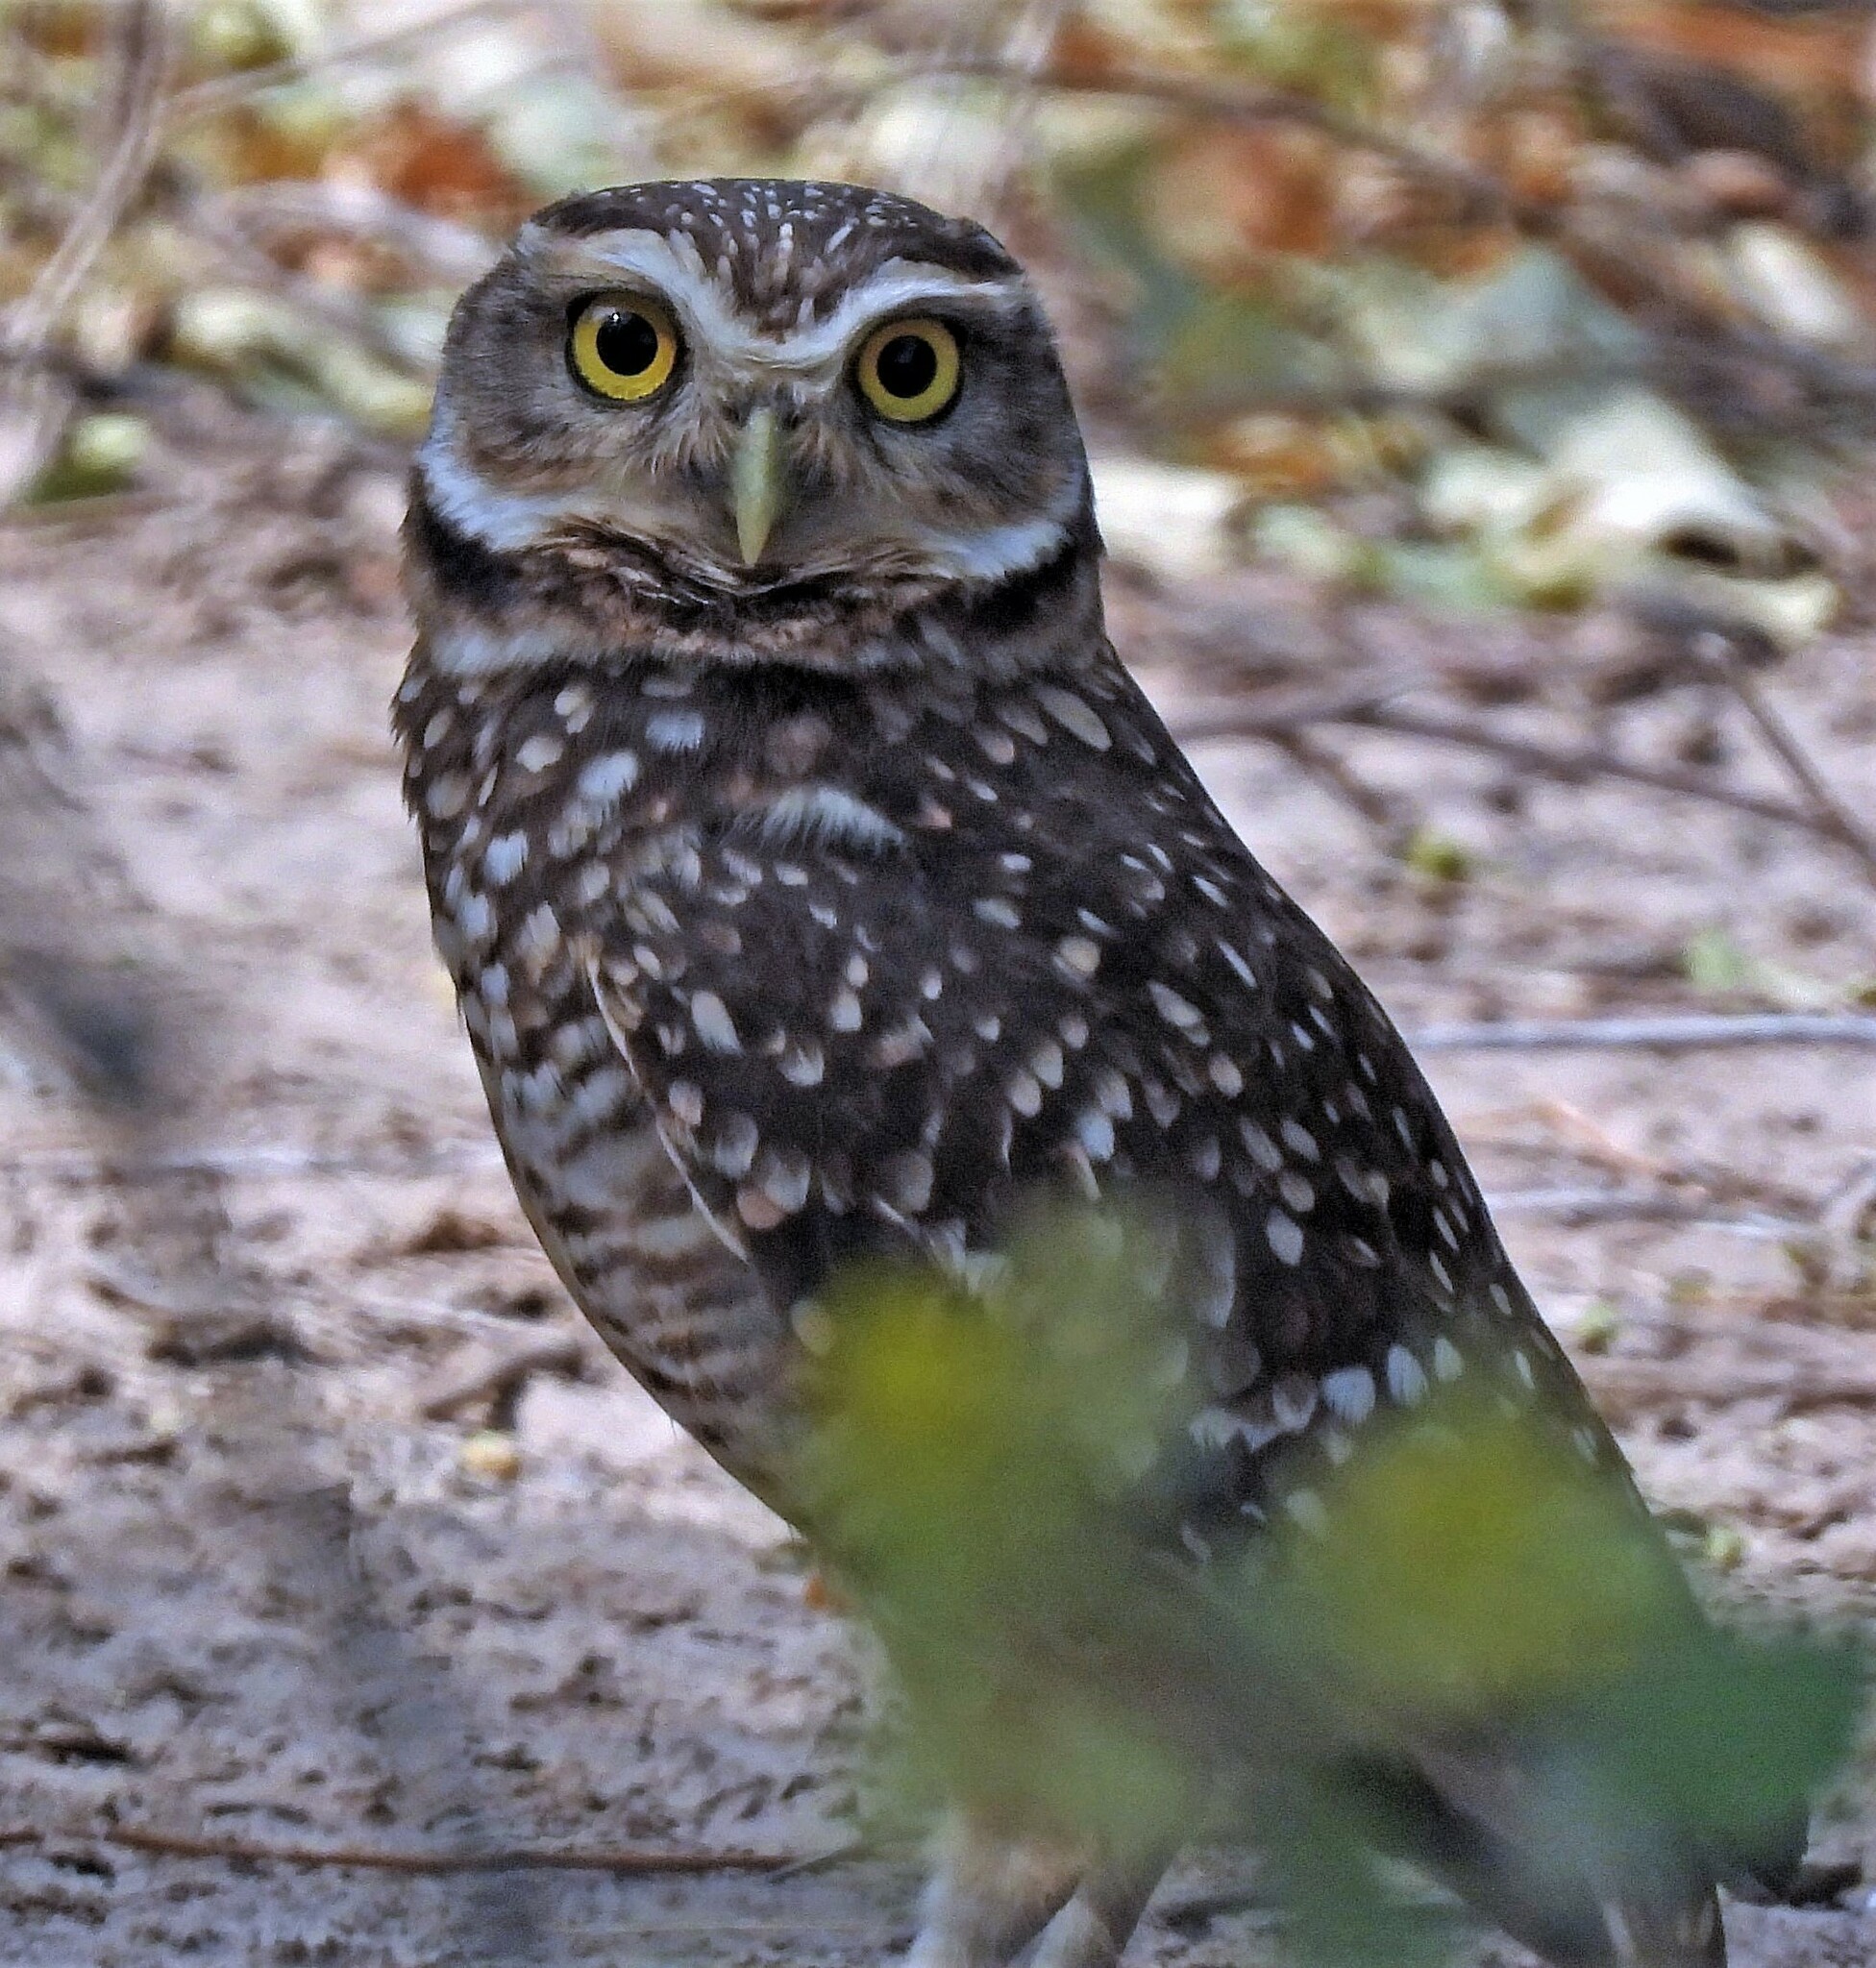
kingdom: Animalia
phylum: Chordata
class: Aves
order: Strigiformes
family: Strigidae
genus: Athene
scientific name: Athene cunicularia
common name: Burrowing owl
